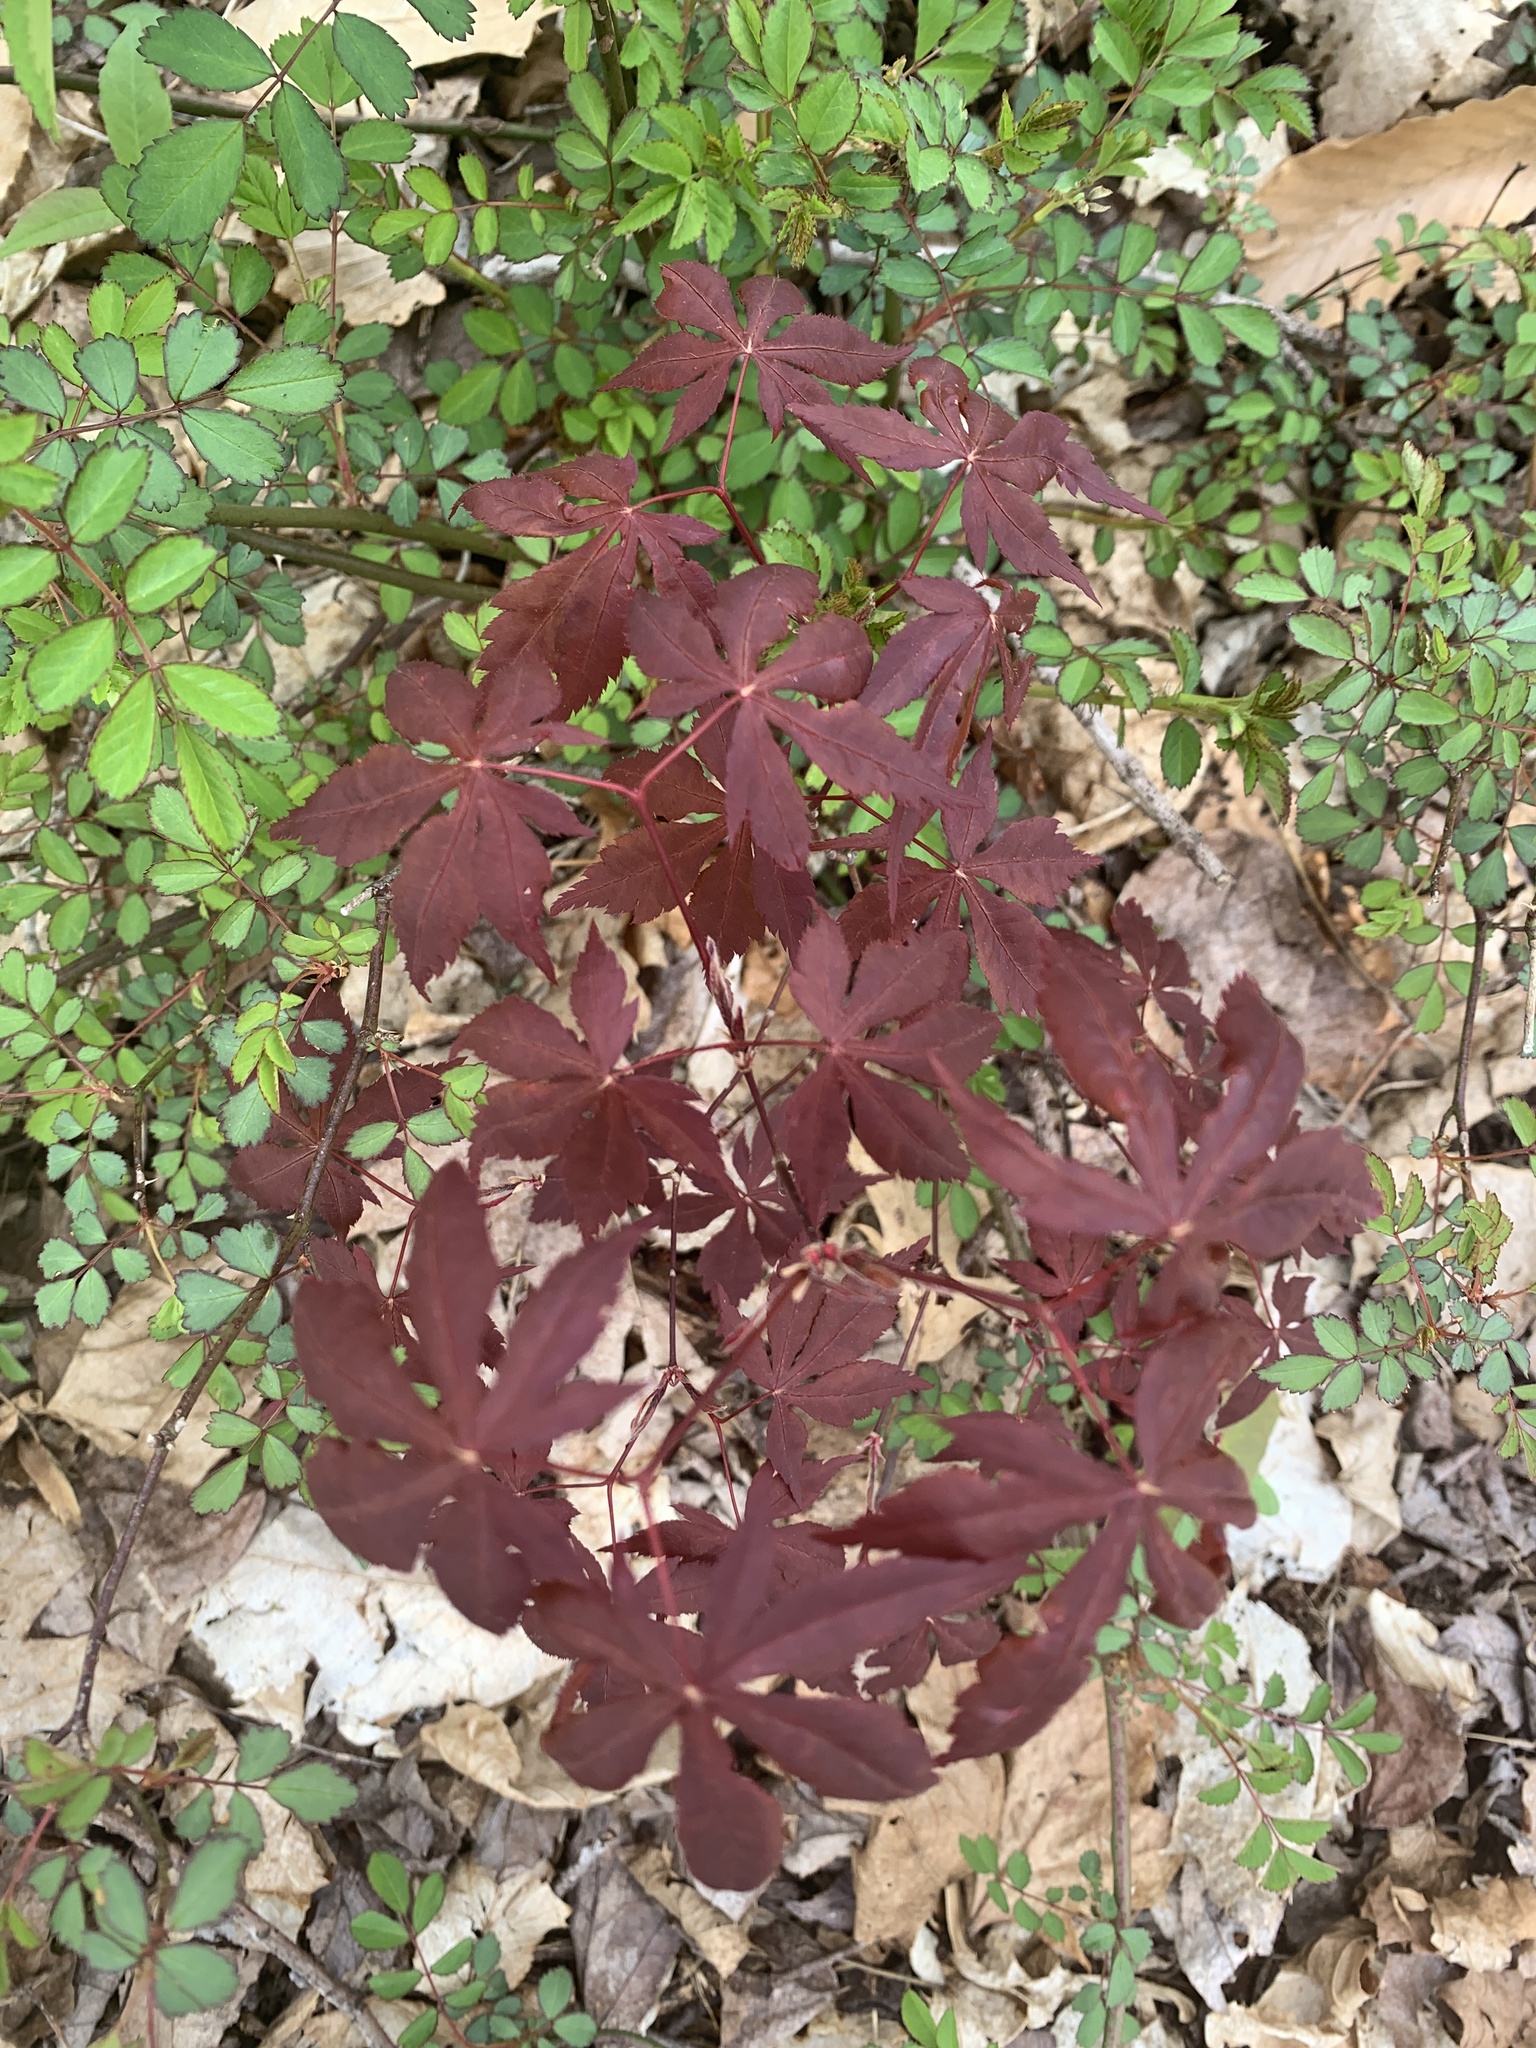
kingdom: Plantae
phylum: Tracheophyta
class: Magnoliopsida
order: Sapindales
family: Sapindaceae
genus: Acer
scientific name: Acer palmatum
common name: Japanese maple
